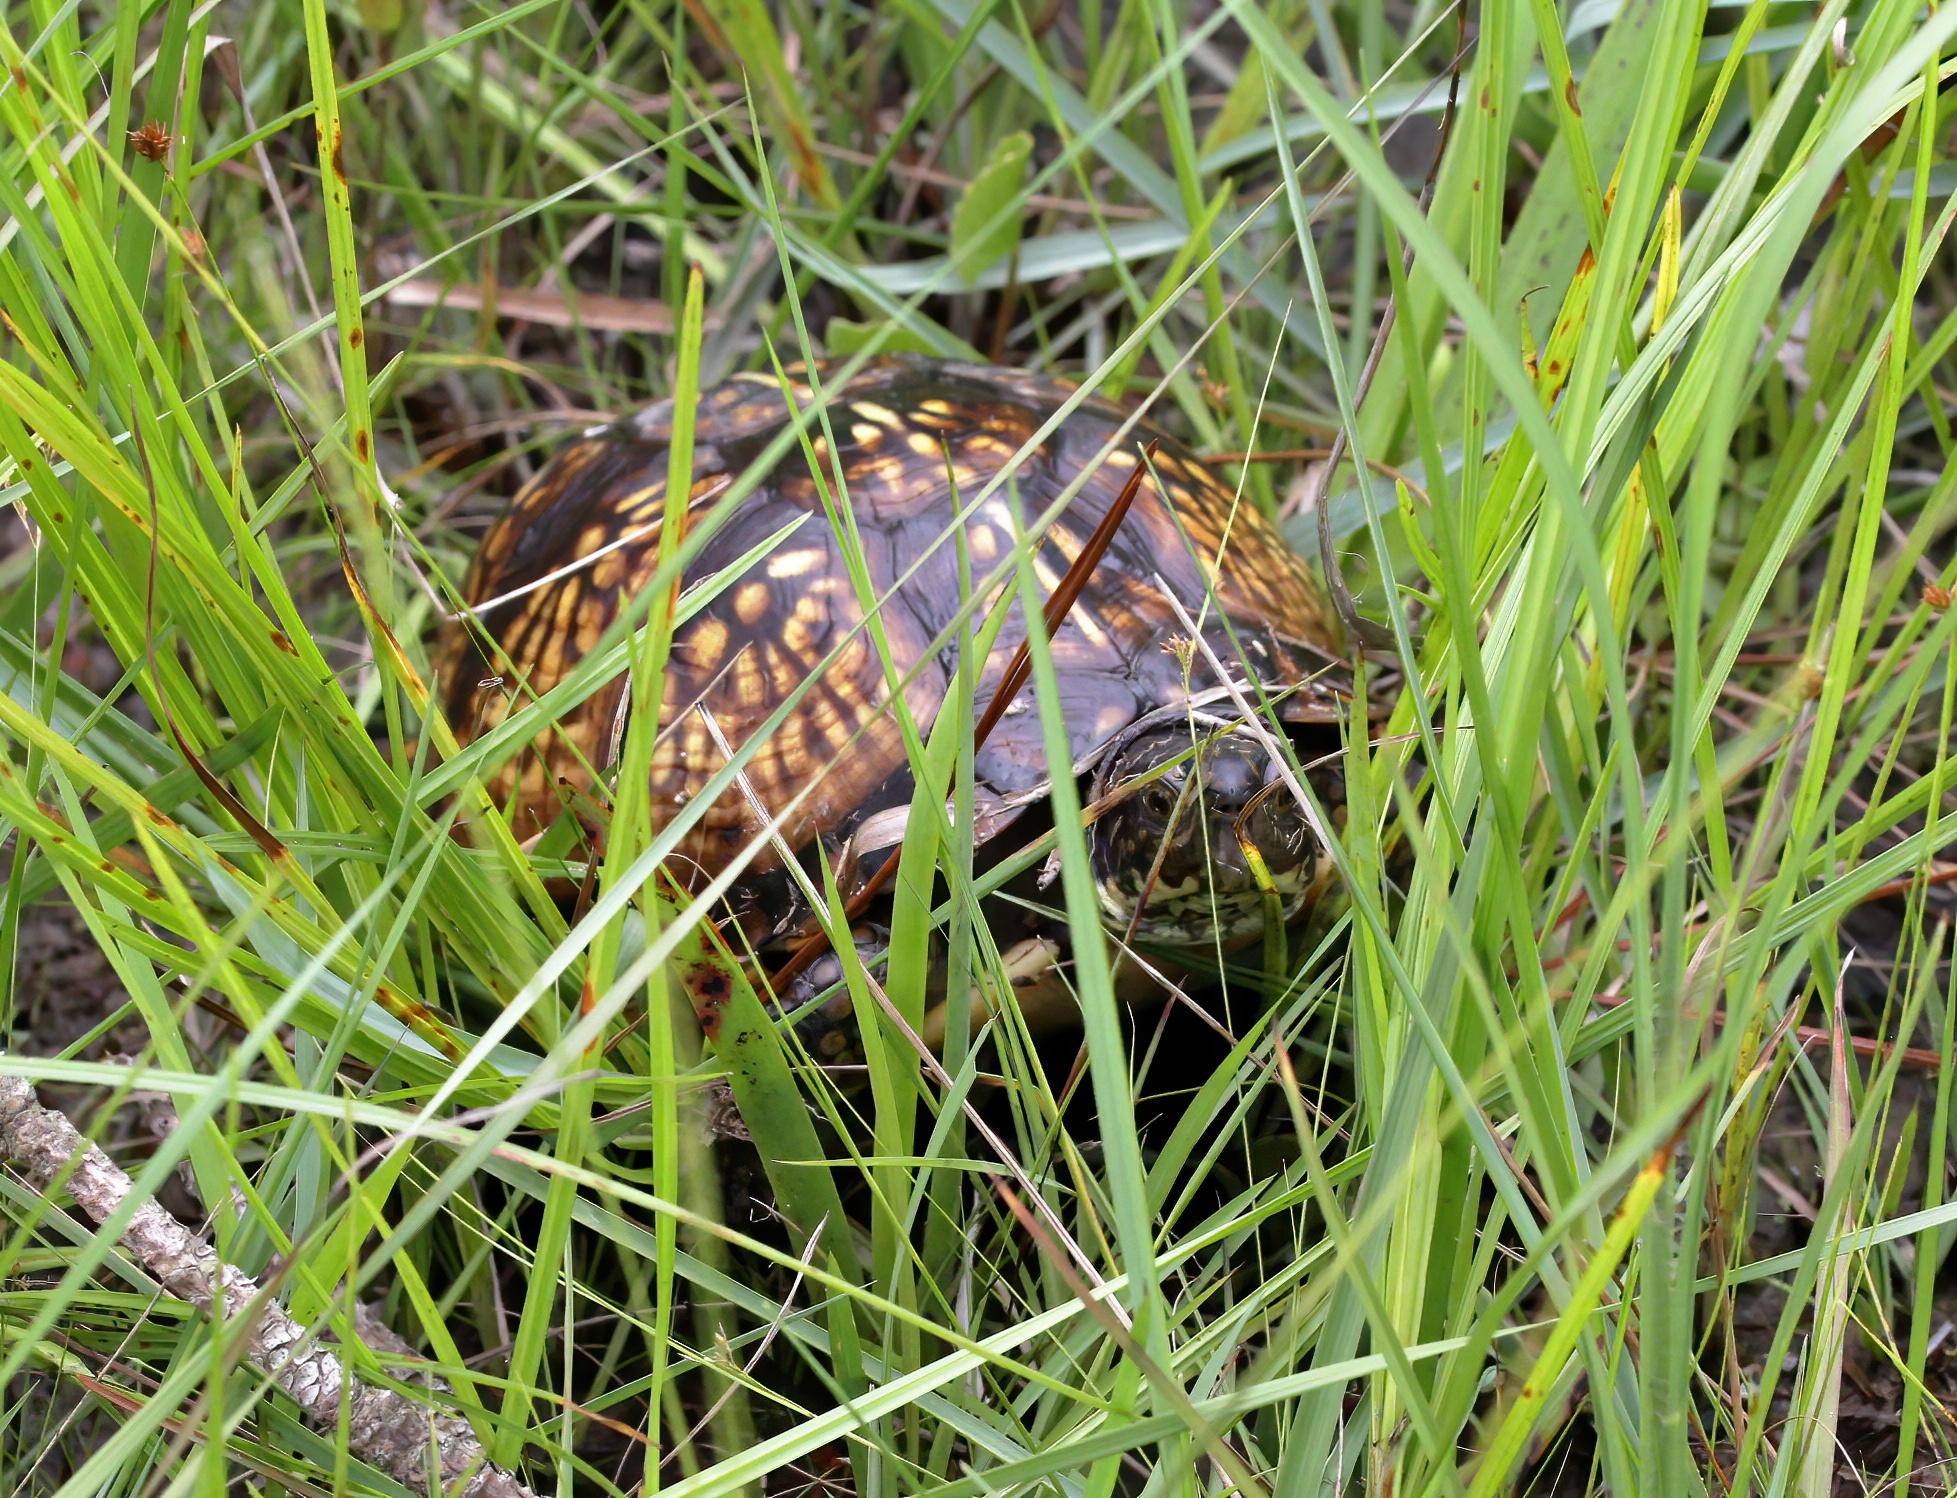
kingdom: Animalia
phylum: Chordata
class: Testudines
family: Emydidae
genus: Terrapene
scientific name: Terrapene carolina
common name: Common box turtle
